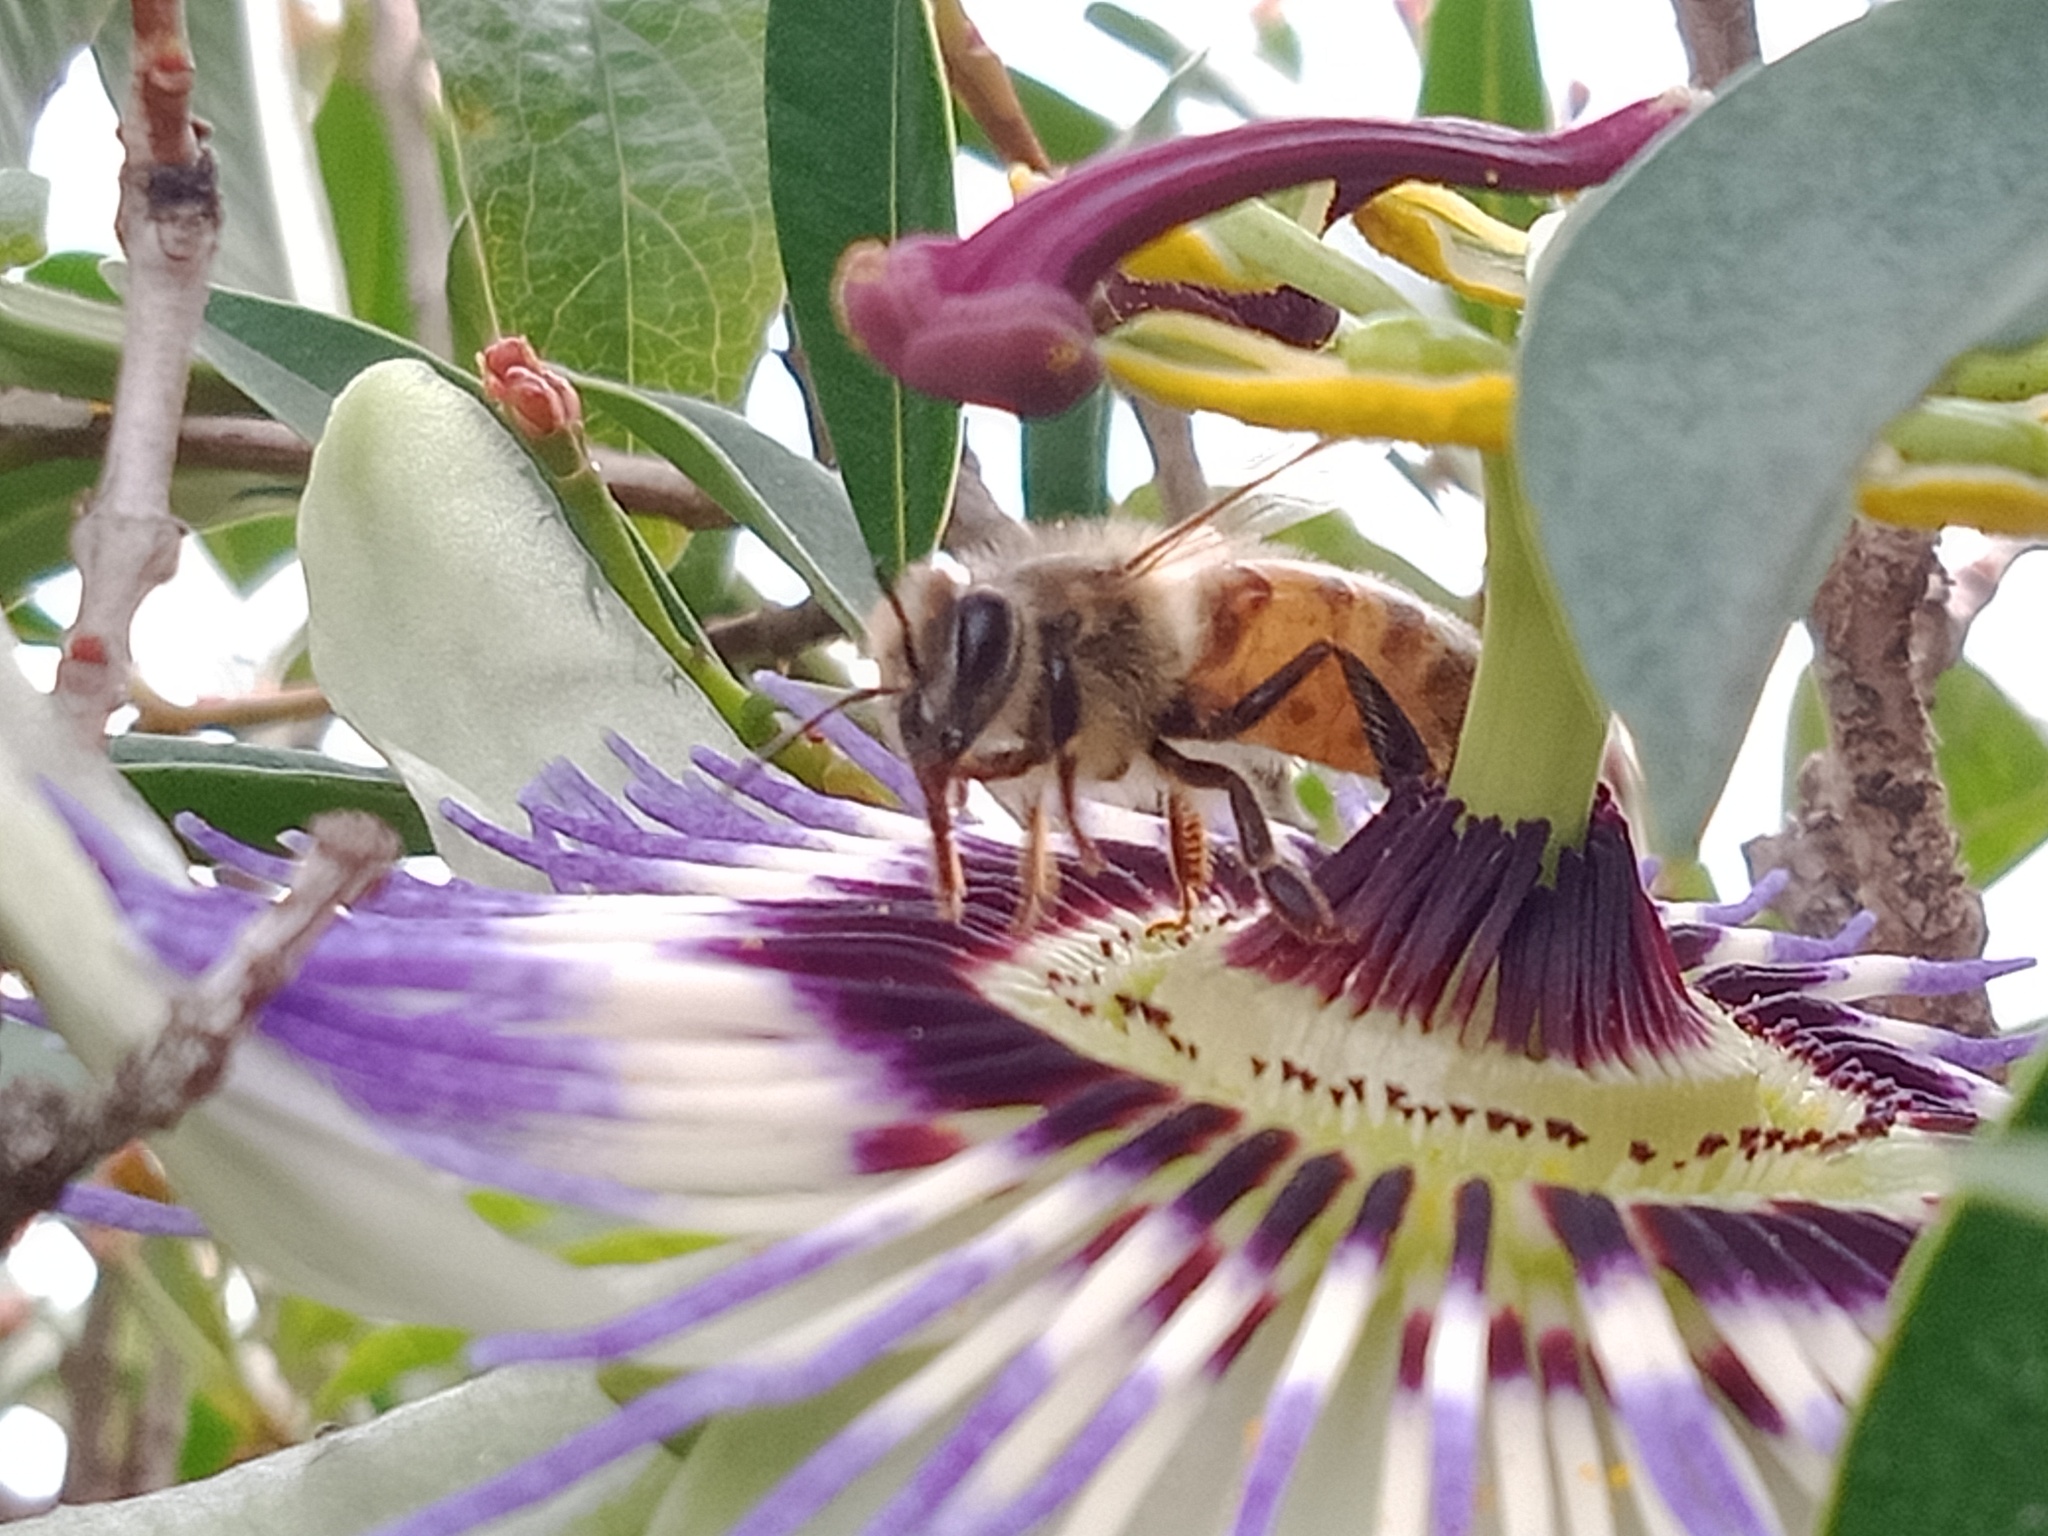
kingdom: Plantae
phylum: Tracheophyta
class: Magnoliopsida
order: Malpighiales
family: Passifloraceae
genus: Passiflora
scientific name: Passiflora caerulea
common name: Blue passionflower
